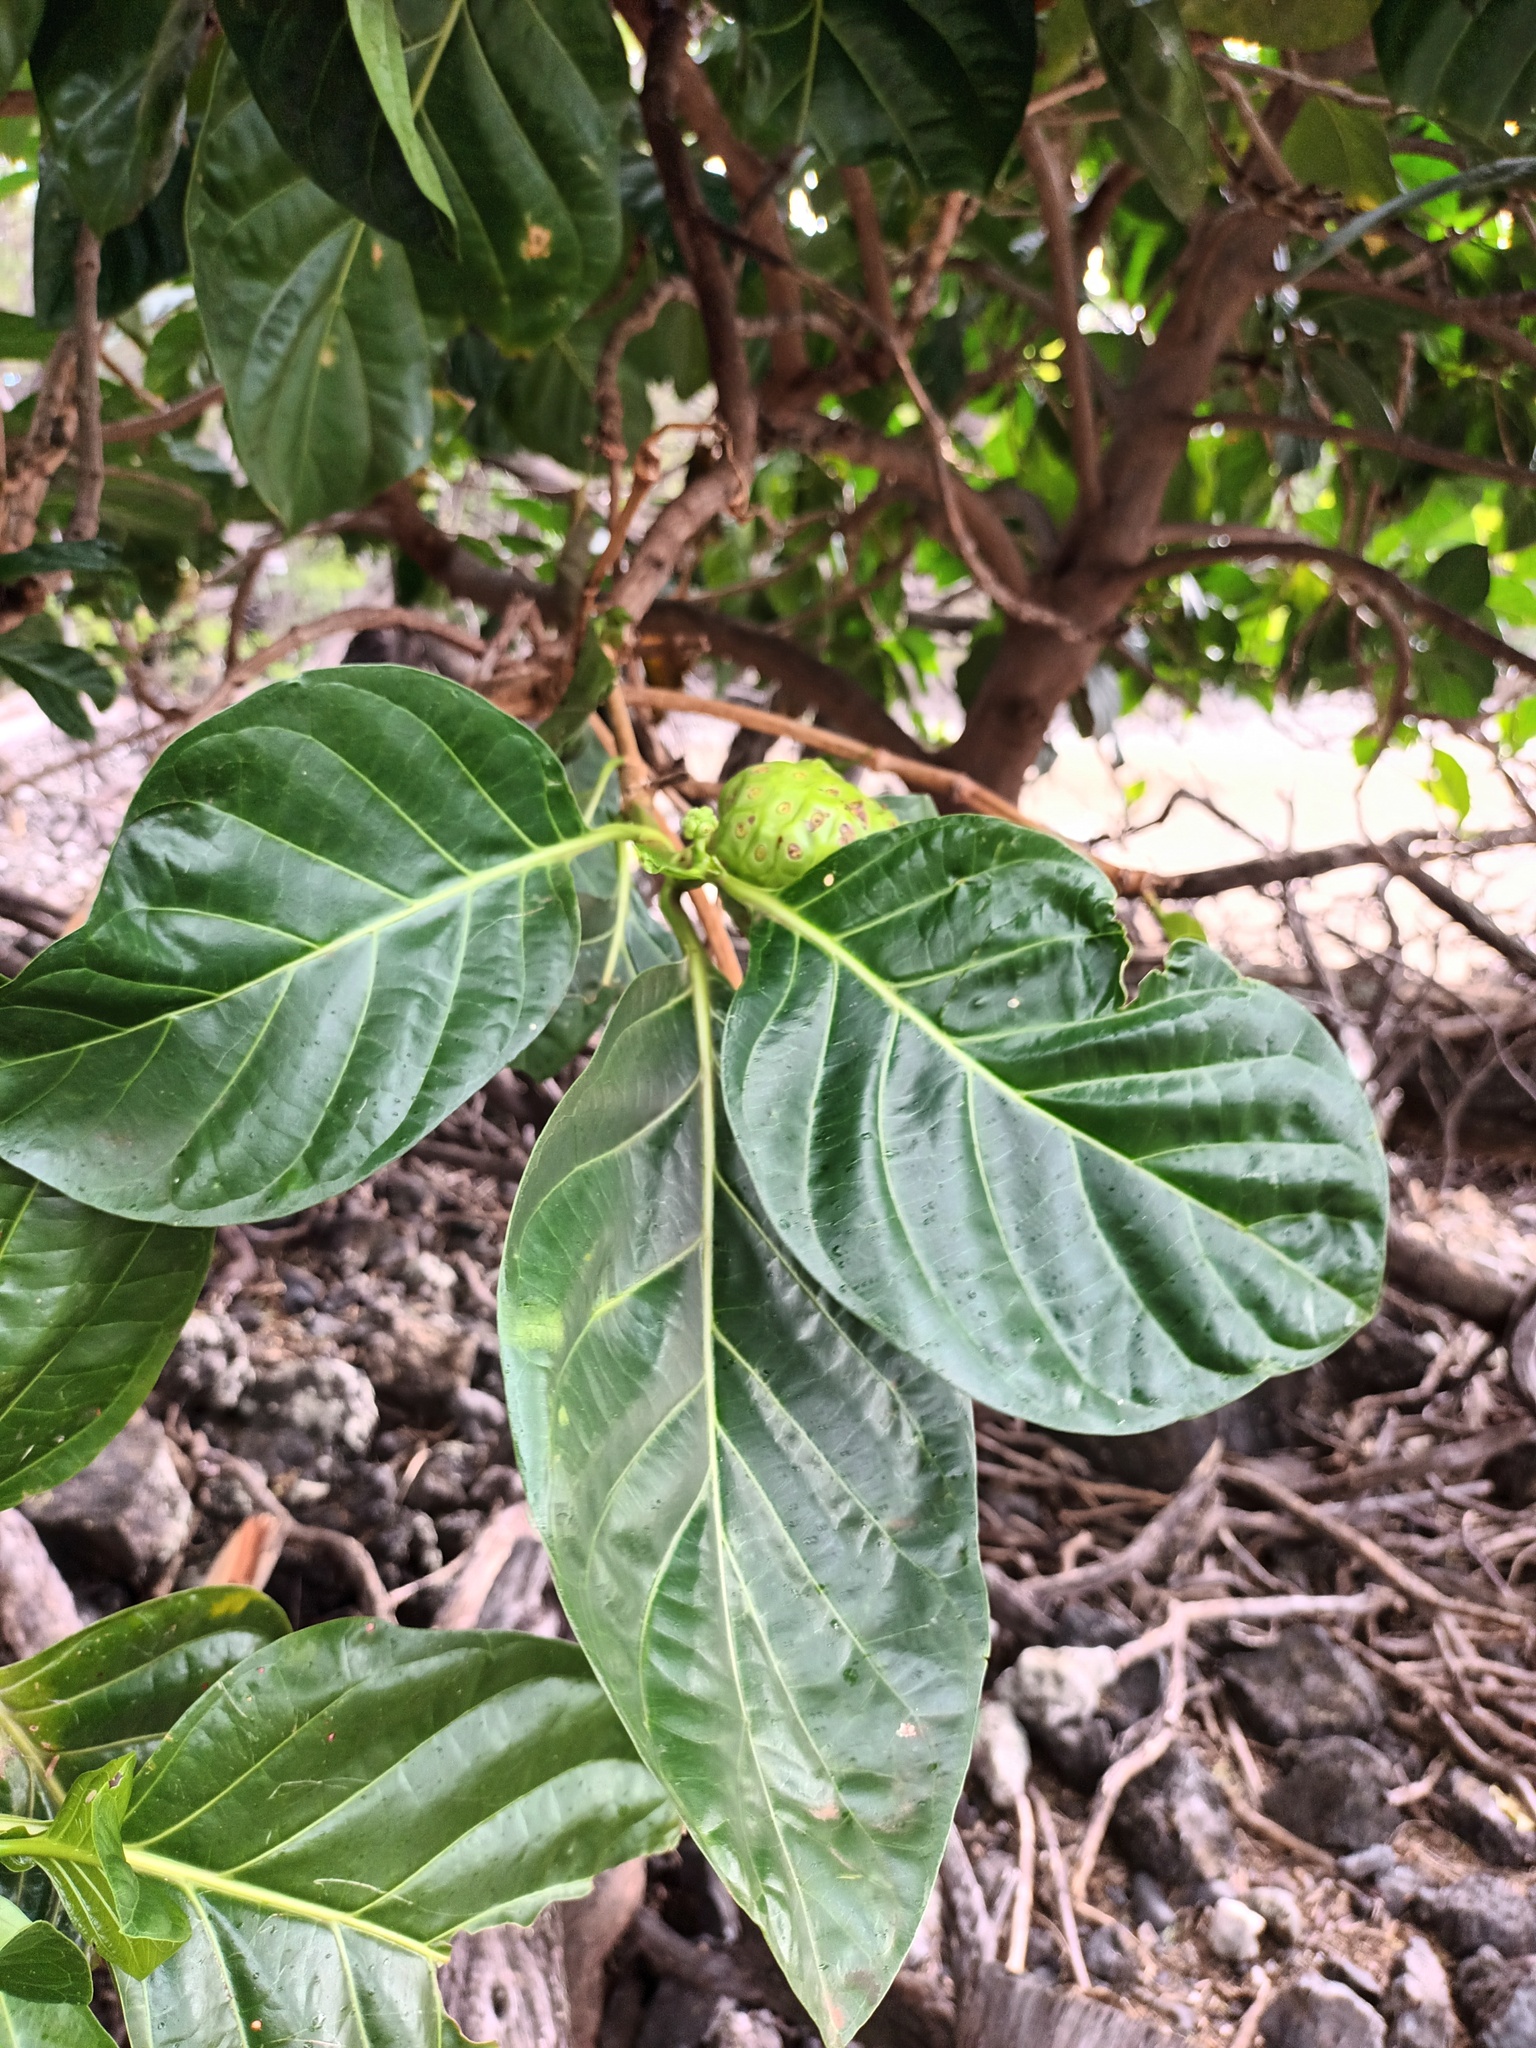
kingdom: Plantae
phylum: Tracheophyta
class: Magnoliopsida
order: Gentianales
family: Rubiaceae
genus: Morinda
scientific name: Morinda citrifolia
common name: Indian-mulberry
